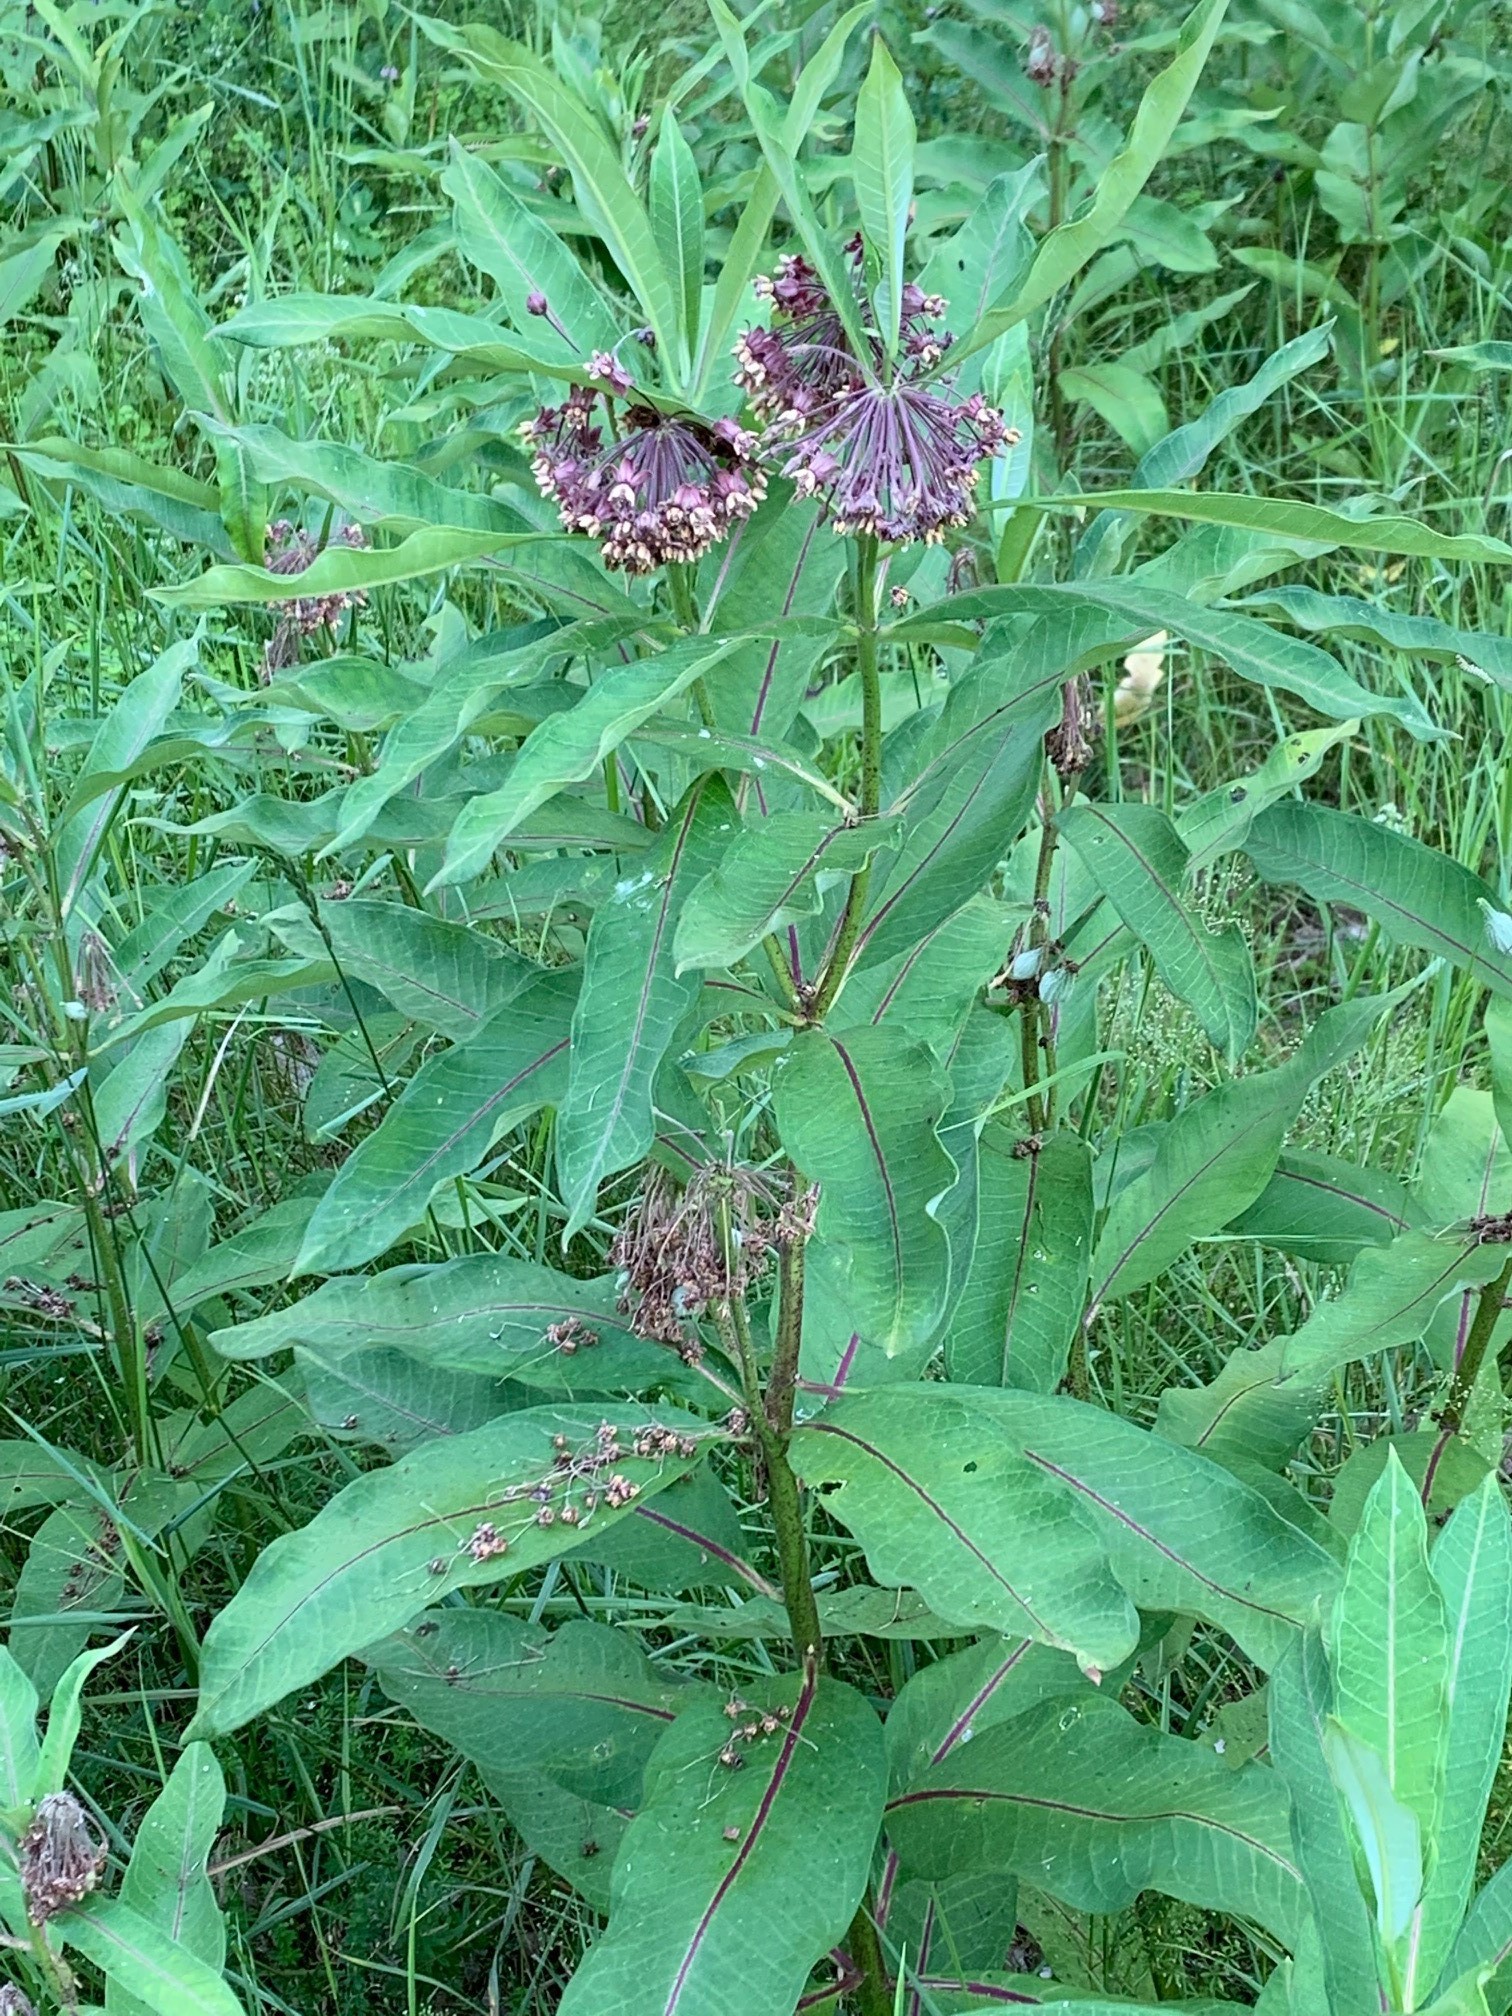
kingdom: Plantae
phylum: Tracheophyta
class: Magnoliopsida
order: Gentianales
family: Apocynaceae
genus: Asclepias
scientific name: Asclepias syriaca
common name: Common milkweed
